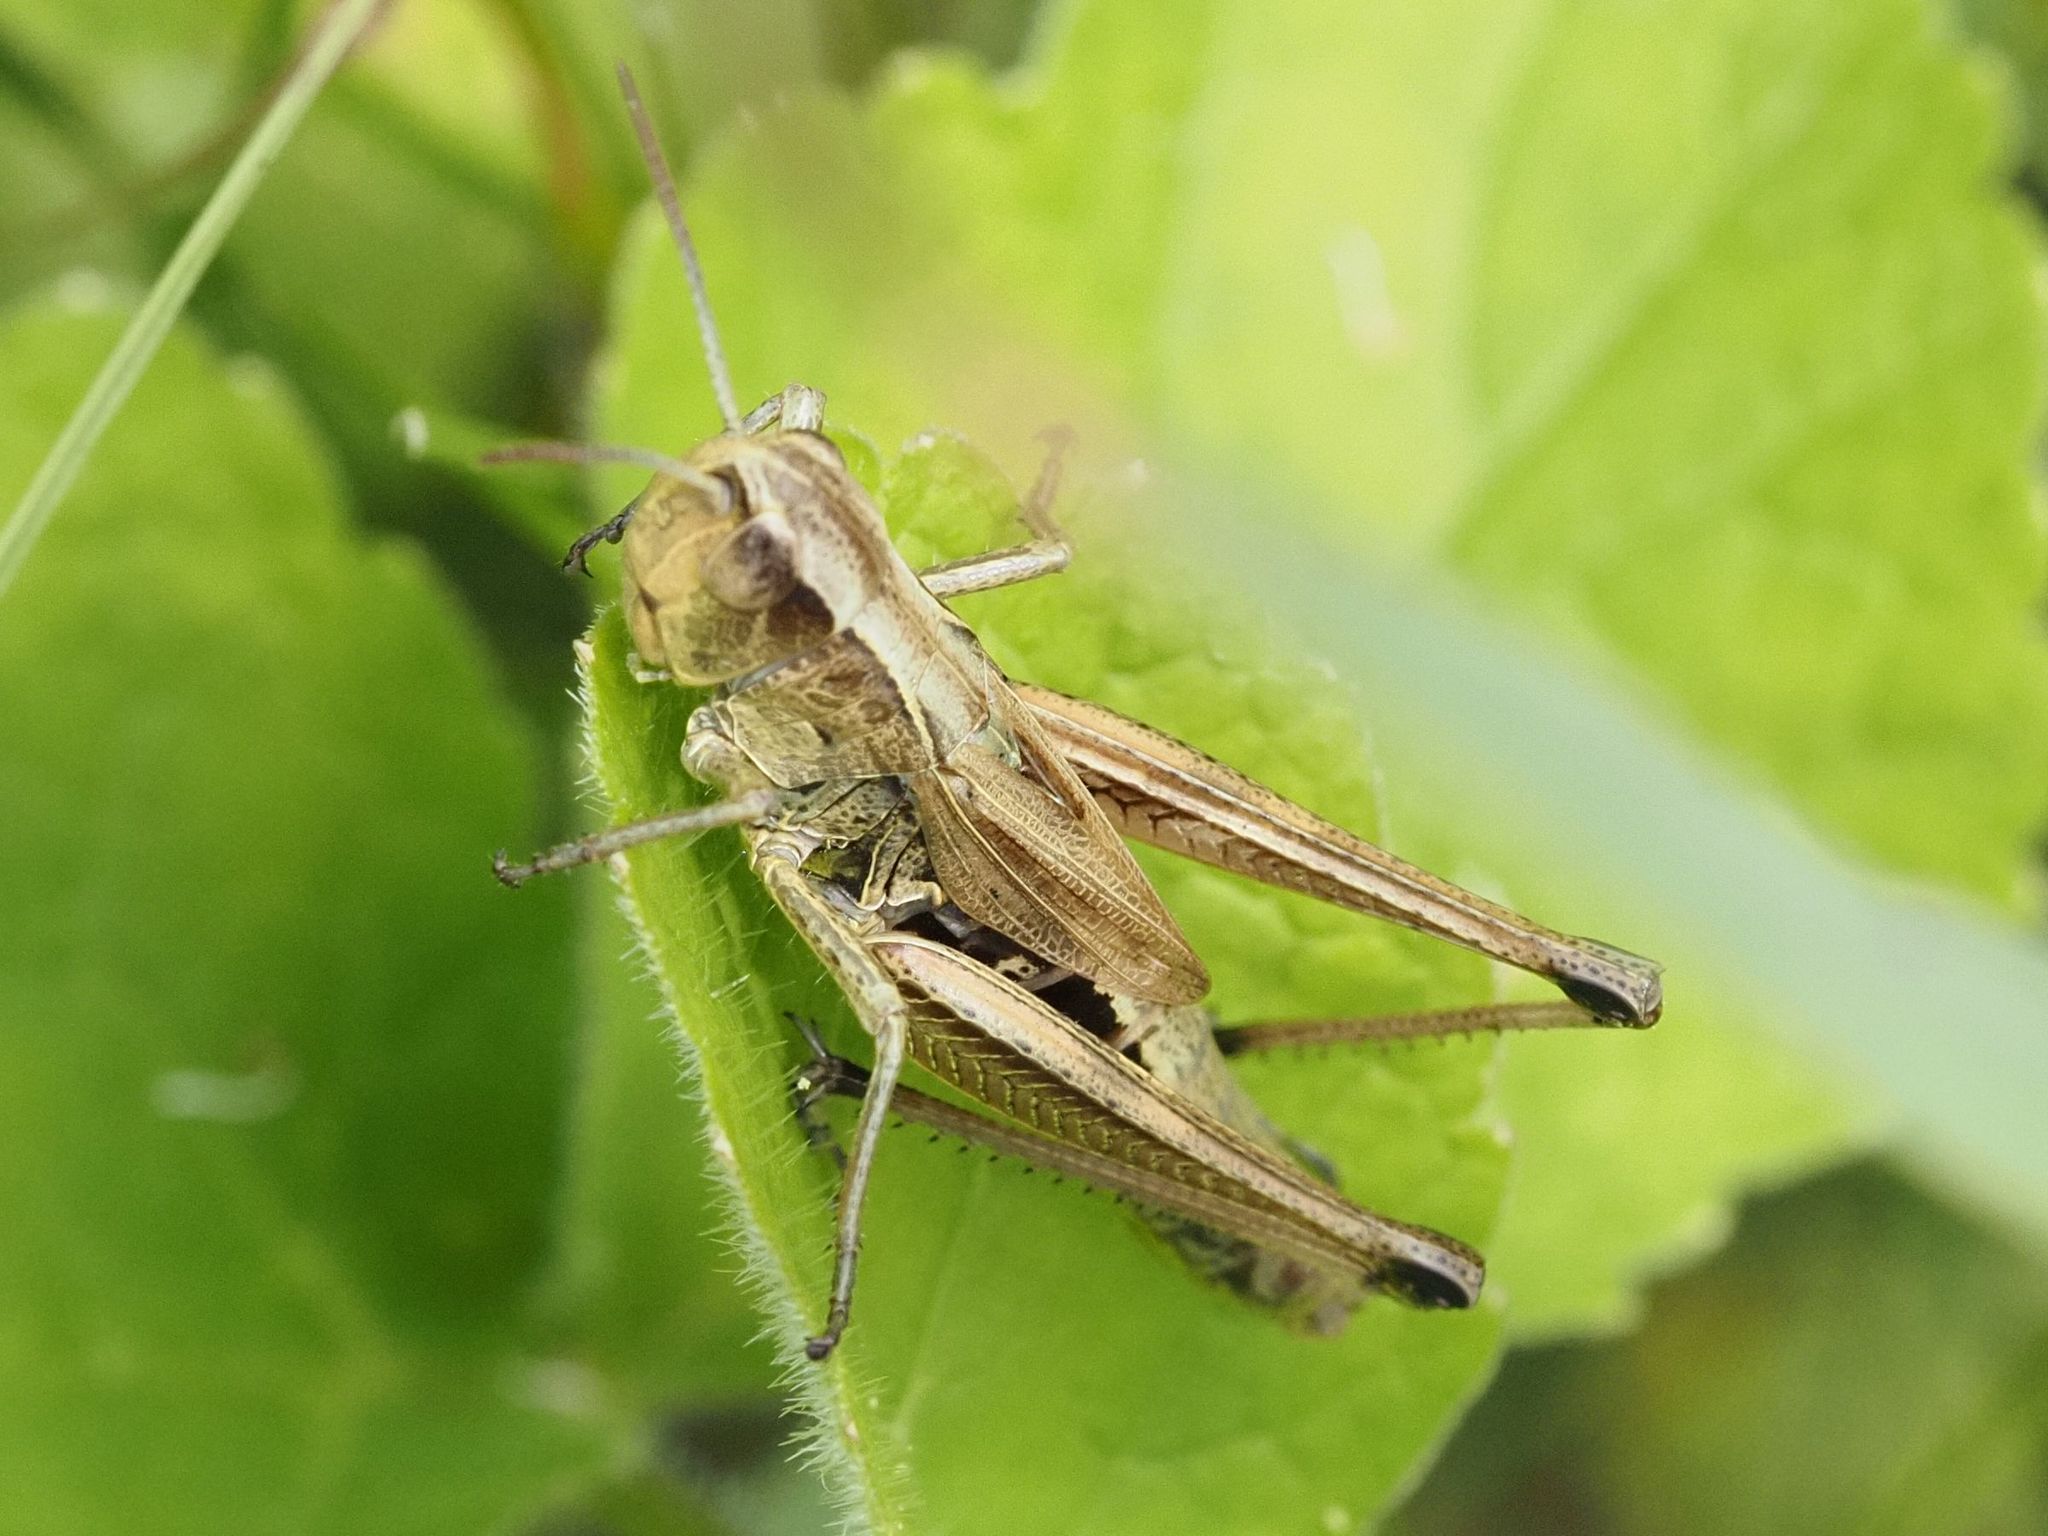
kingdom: Animalia
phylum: Arthropoda
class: Insecta
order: Orthoptera
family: Acrididae
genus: Pseudochorthippus
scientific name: Pseudochorthippus parallelus
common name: Meadow grasshopper
